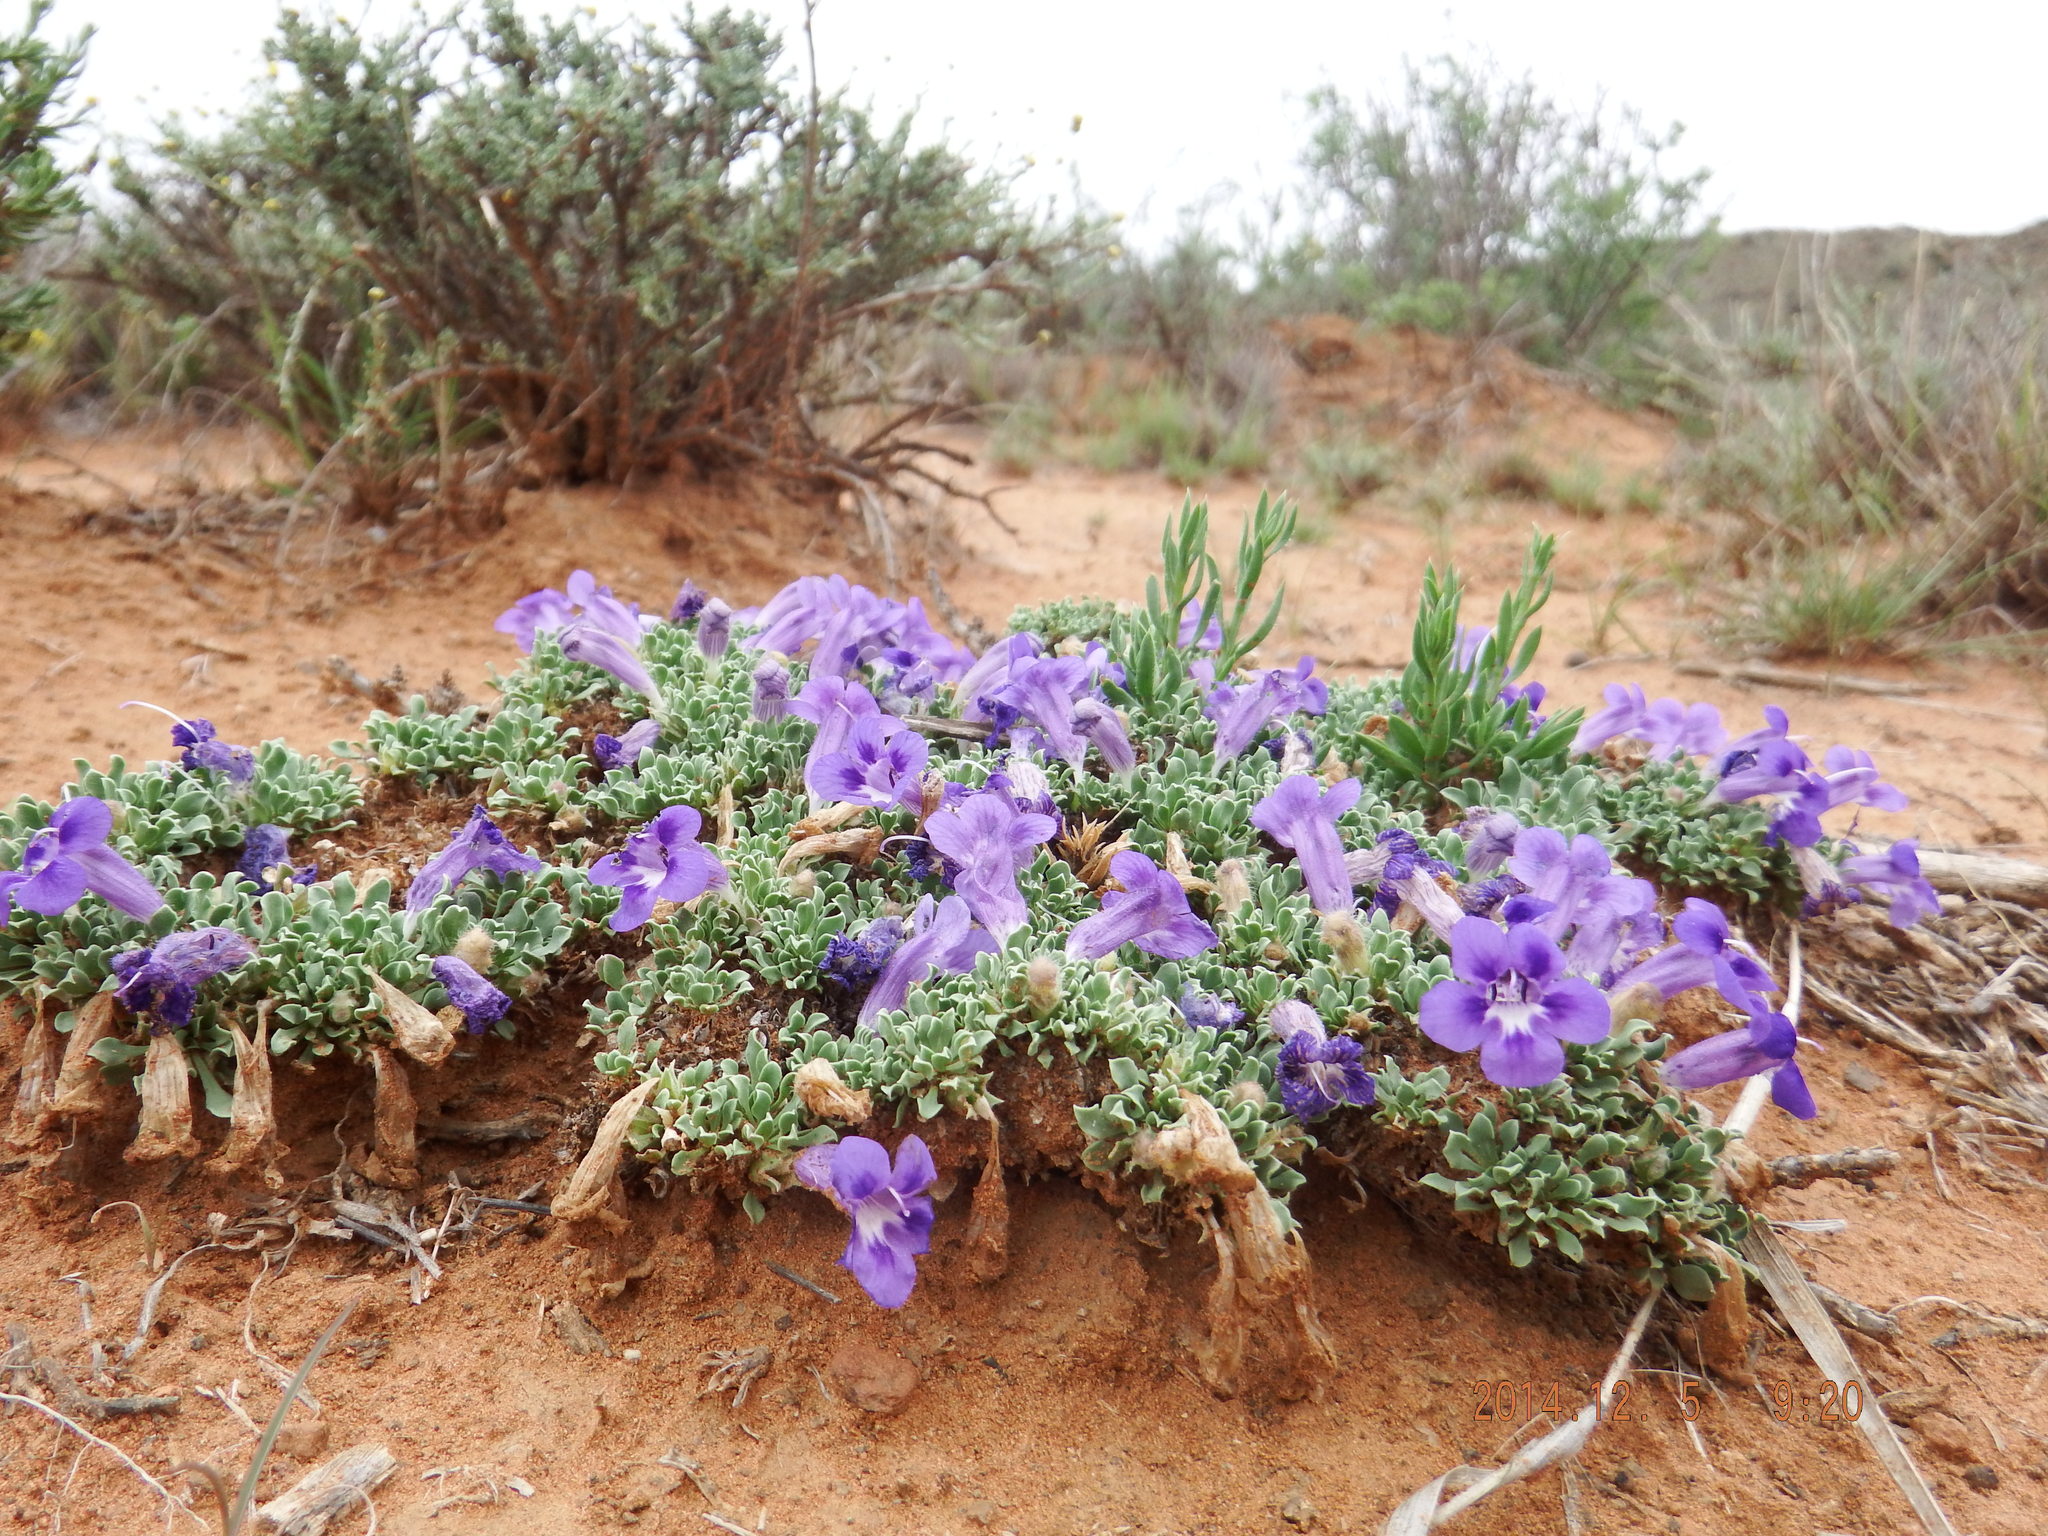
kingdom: Plantae
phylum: Tracheophyta
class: Magnoliopsida
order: Lamiales
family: Scrophulariaceae
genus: Aptosimum
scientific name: Aptosimum indivisum
